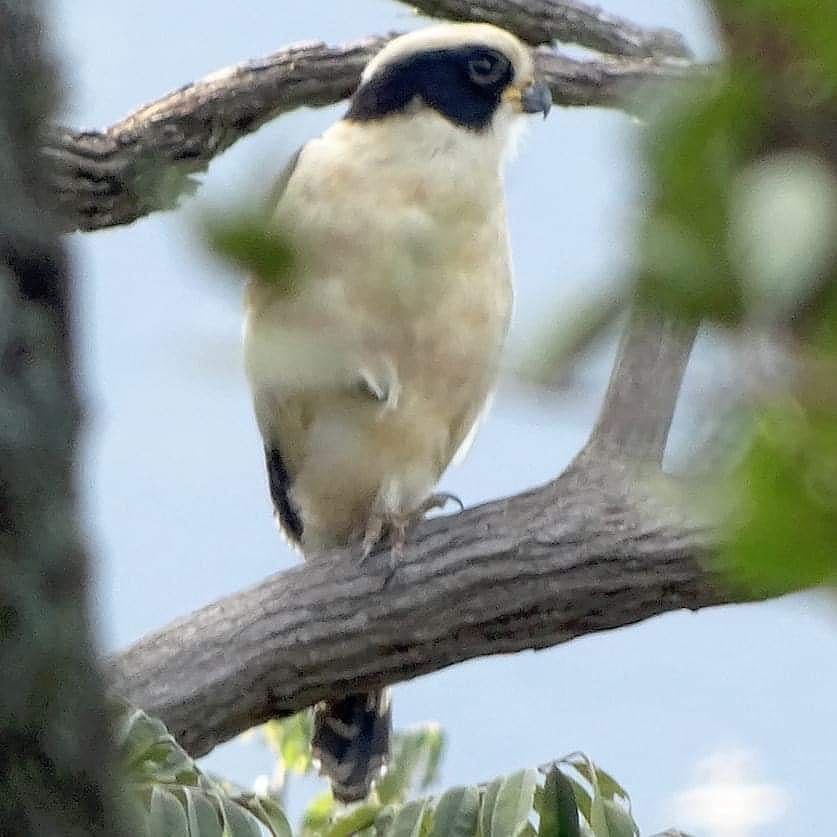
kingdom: Animalia
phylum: Chordata
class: Aves
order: Falconiformes
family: Falconidae
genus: Herpetotheres
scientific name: Herpetotheres cachinnans
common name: Laughing falcon
